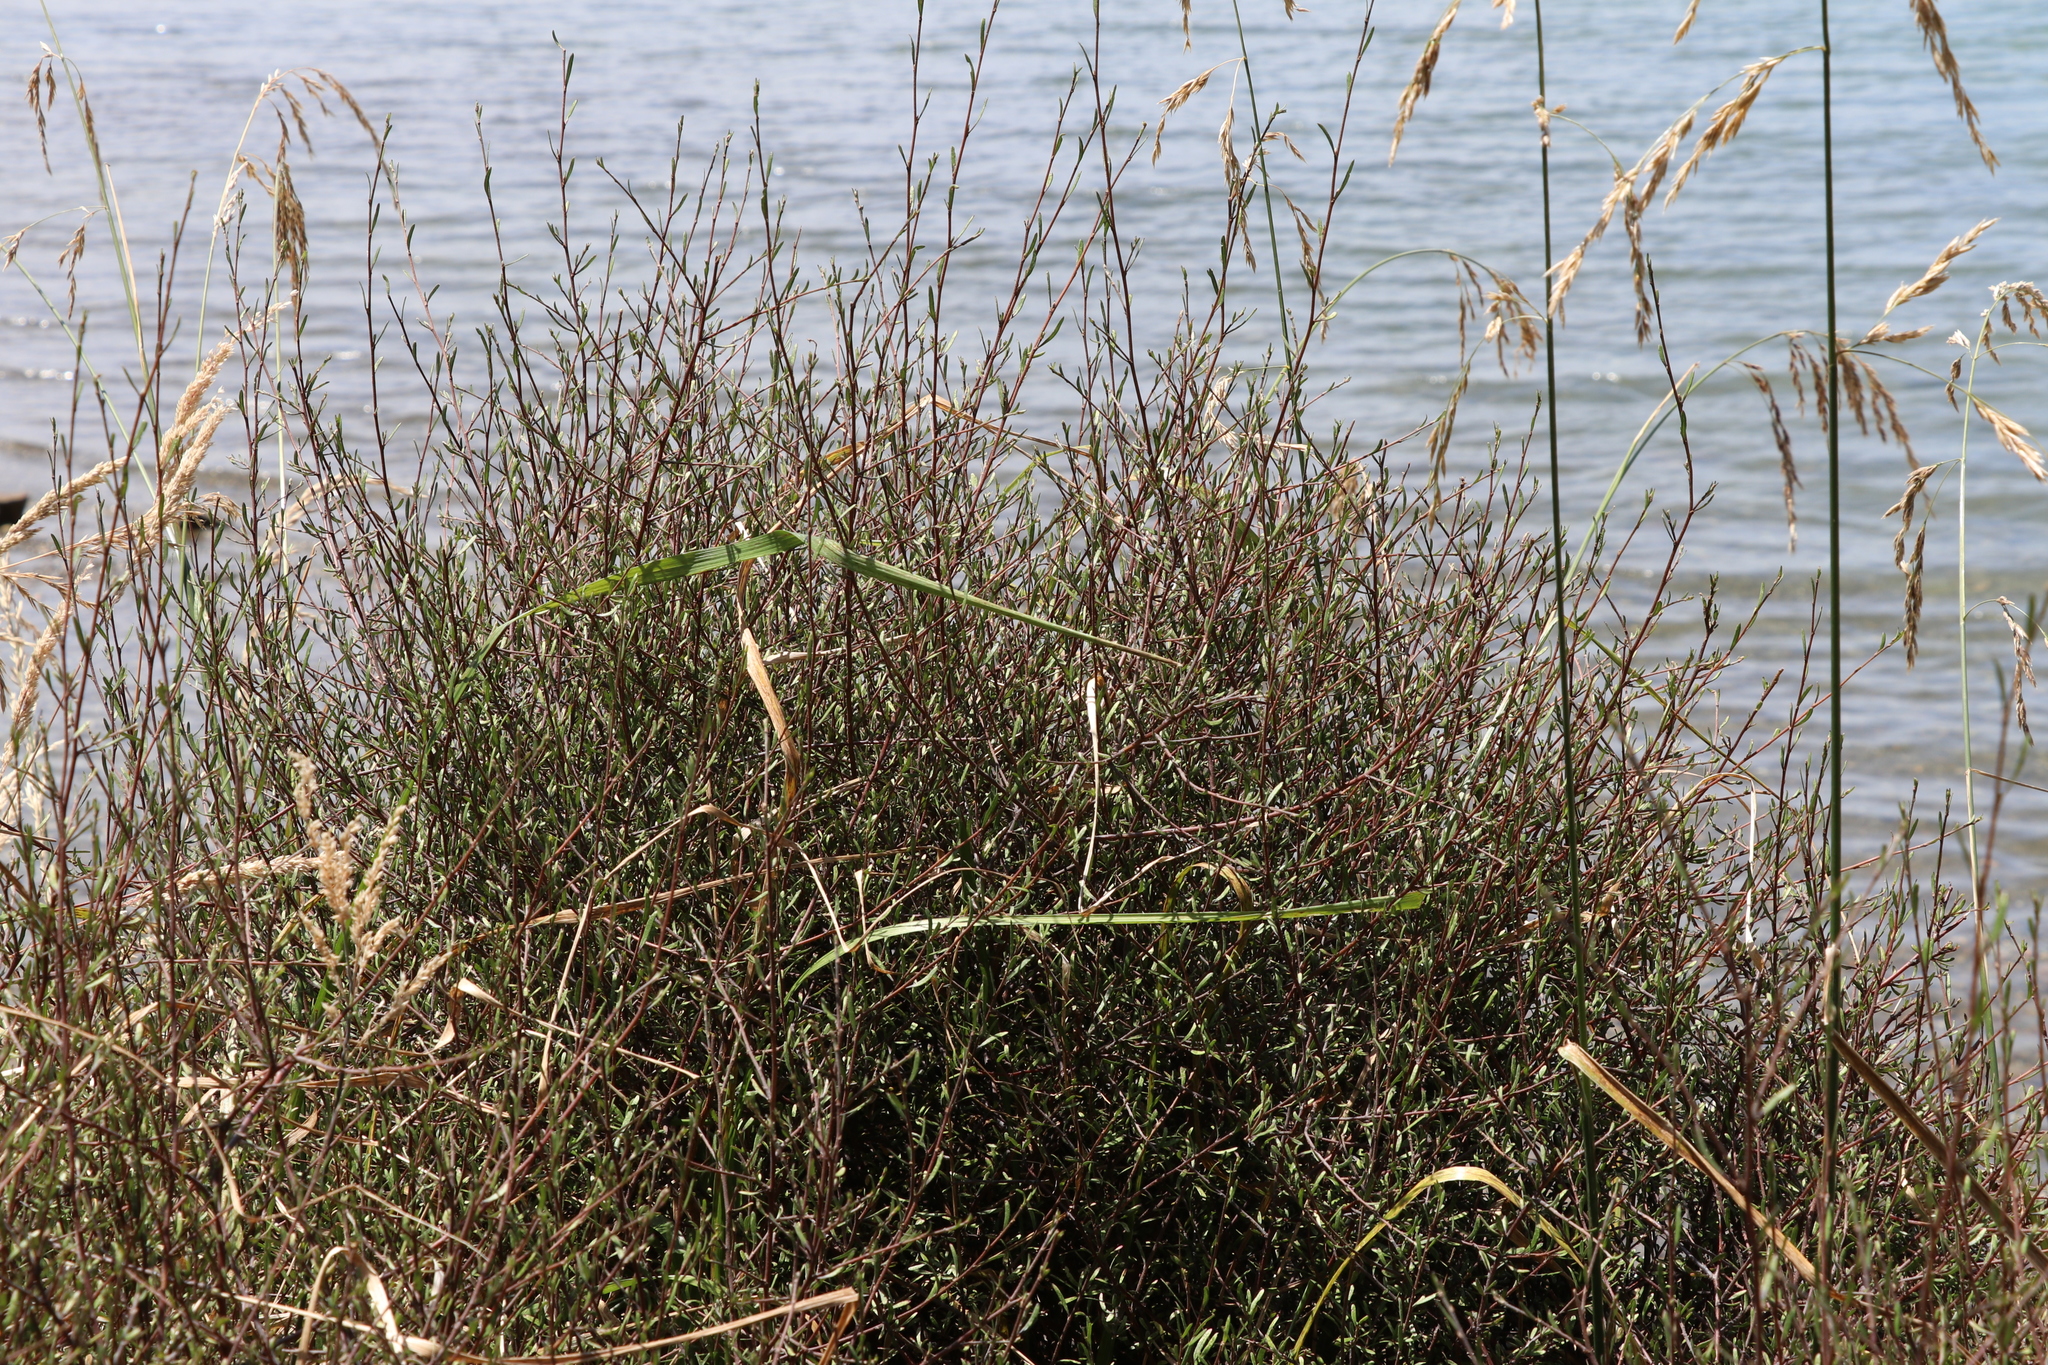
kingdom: Plantae
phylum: Tracheophyta
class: Magnoliopsida
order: Malvales
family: Malvaceae
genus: Plagianthus
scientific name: Plagianthus divaricatus
